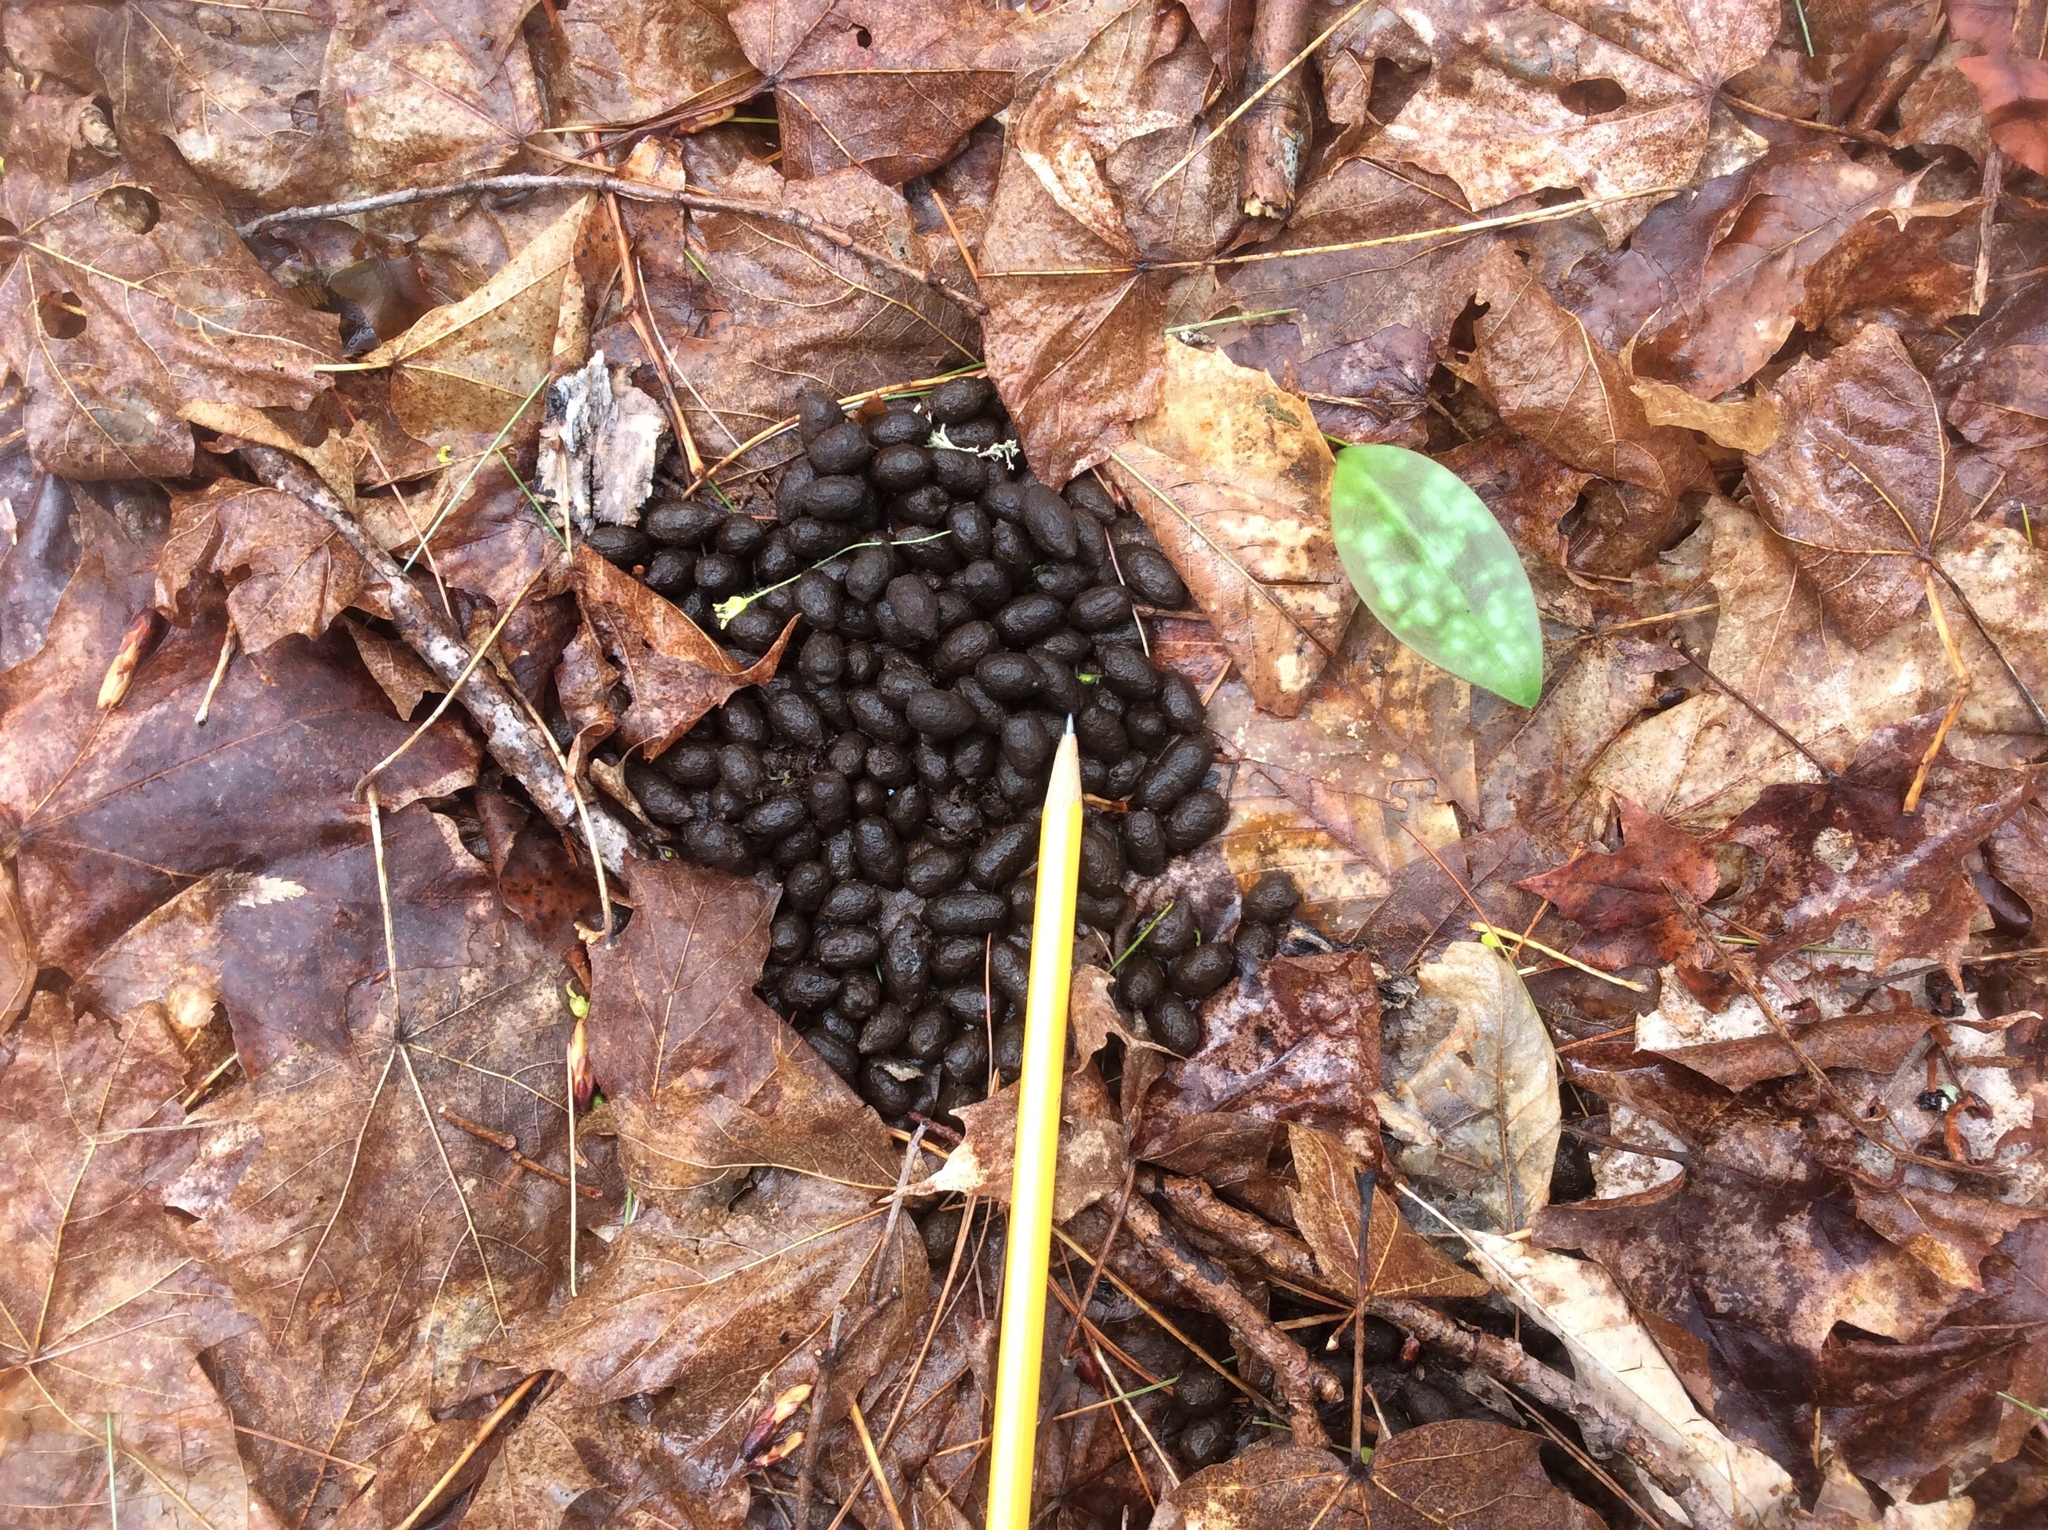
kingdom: Animalia
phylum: Chordata
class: Mammalia
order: Artiodactyla
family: Cervidae
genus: Odocoileus
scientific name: Odocoileus virginianus
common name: White-tailed deer
